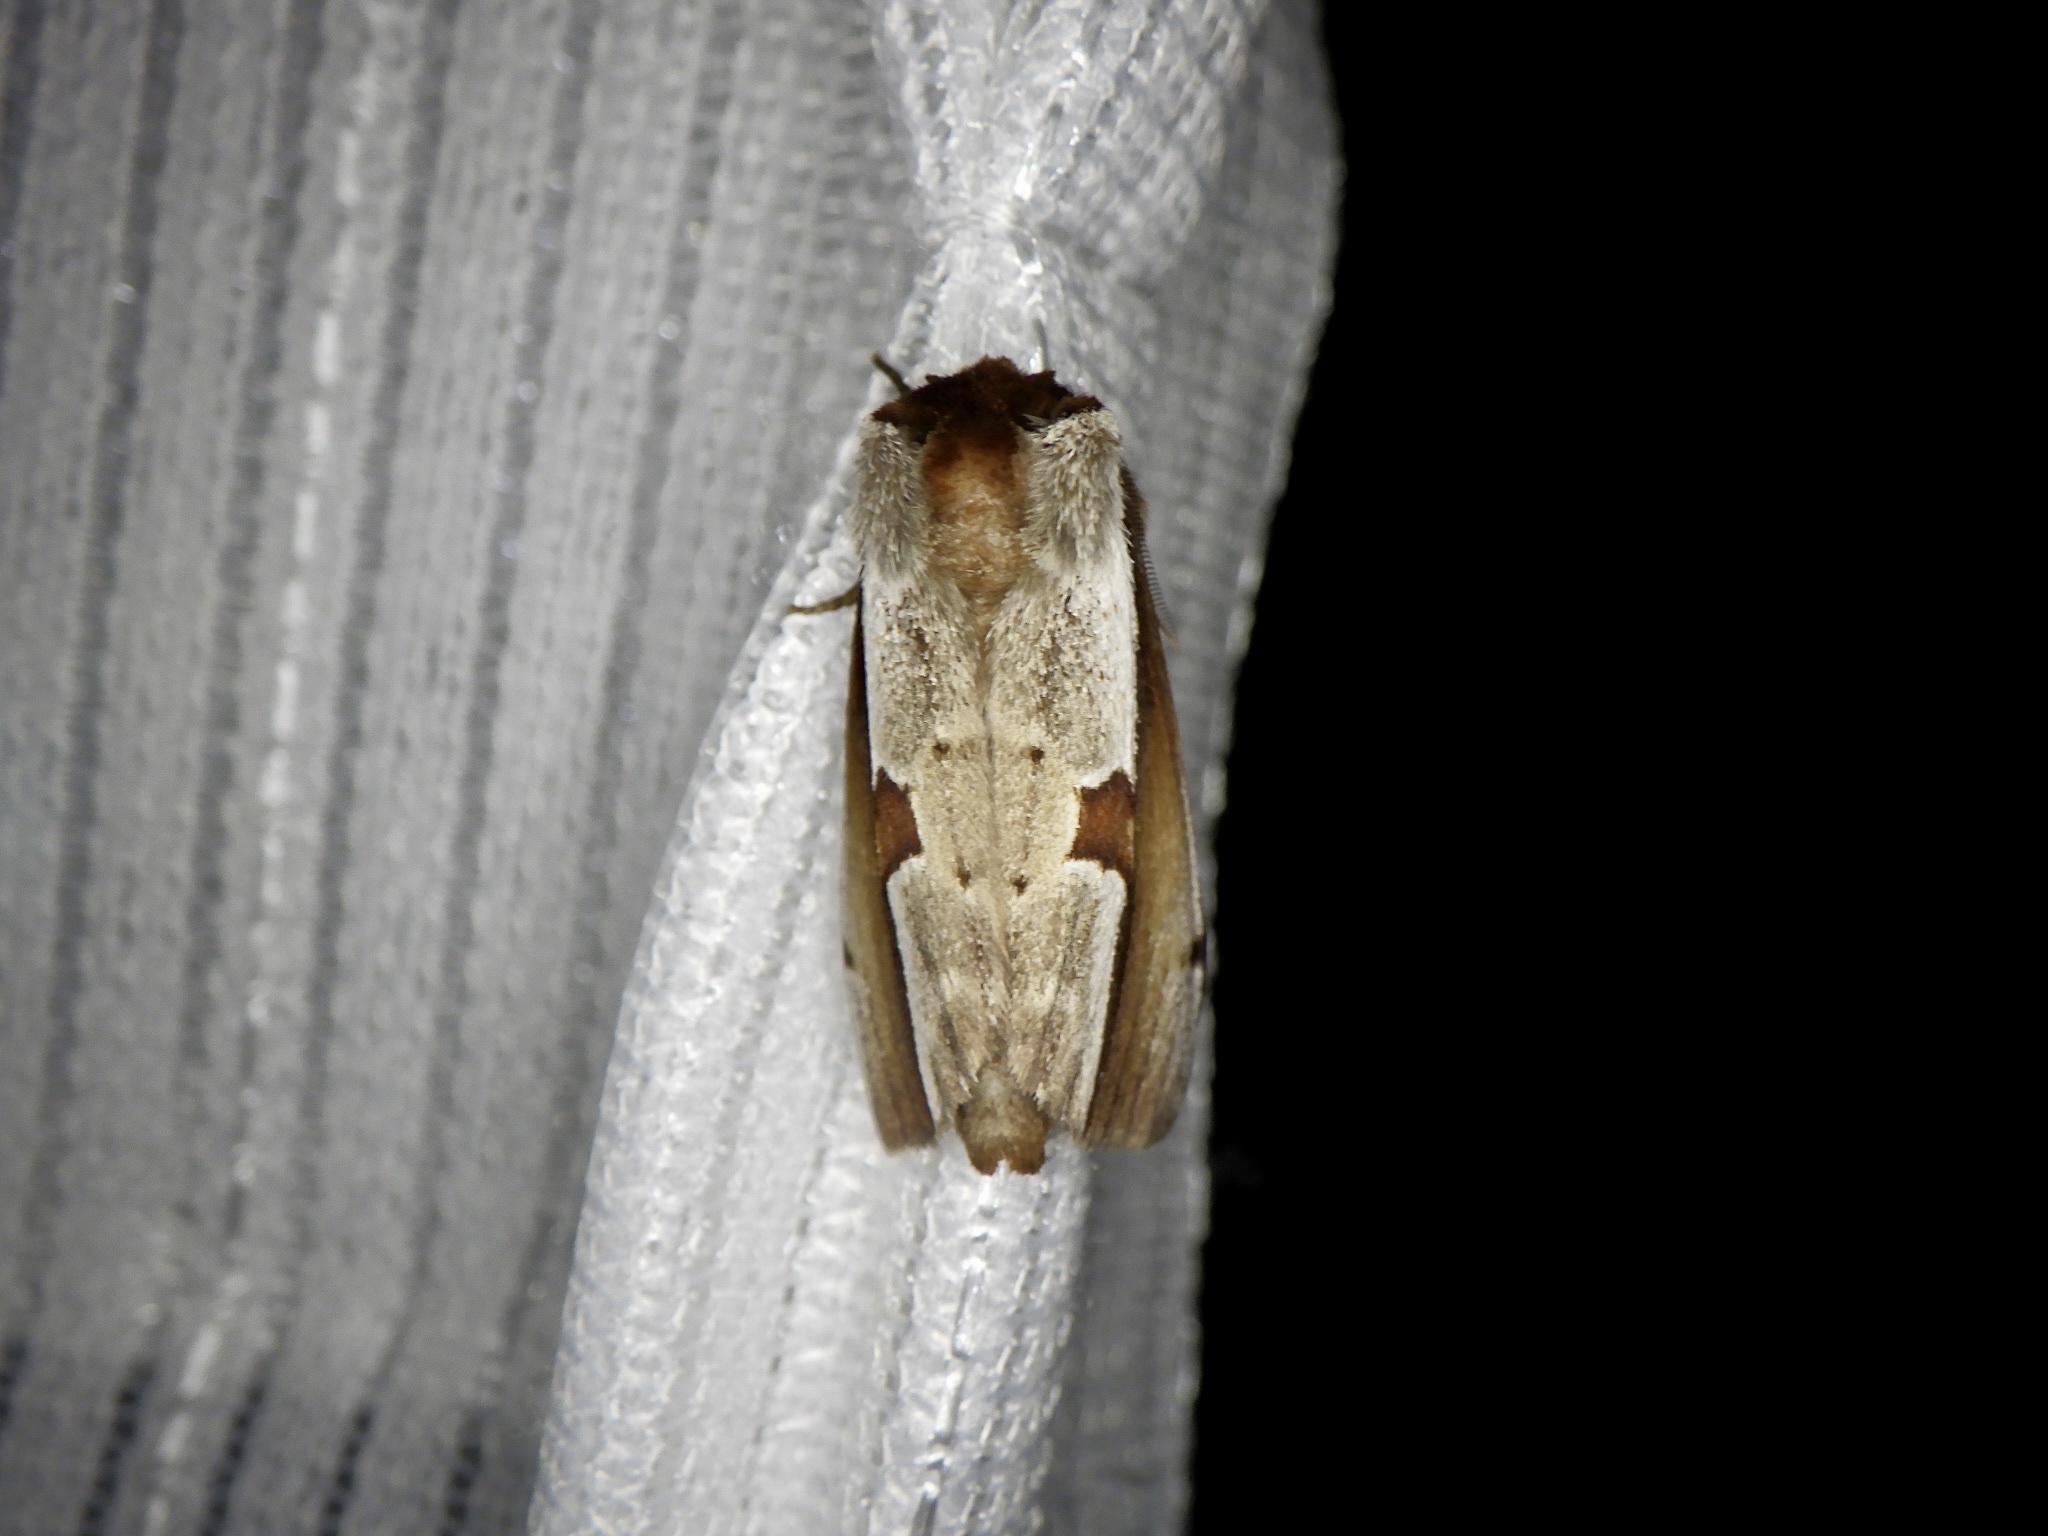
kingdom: Animalia
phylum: Arthropoda
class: Insecta
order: Lepidoptera
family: Notodontidae
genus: Nerice
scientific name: Nerice bipartita
